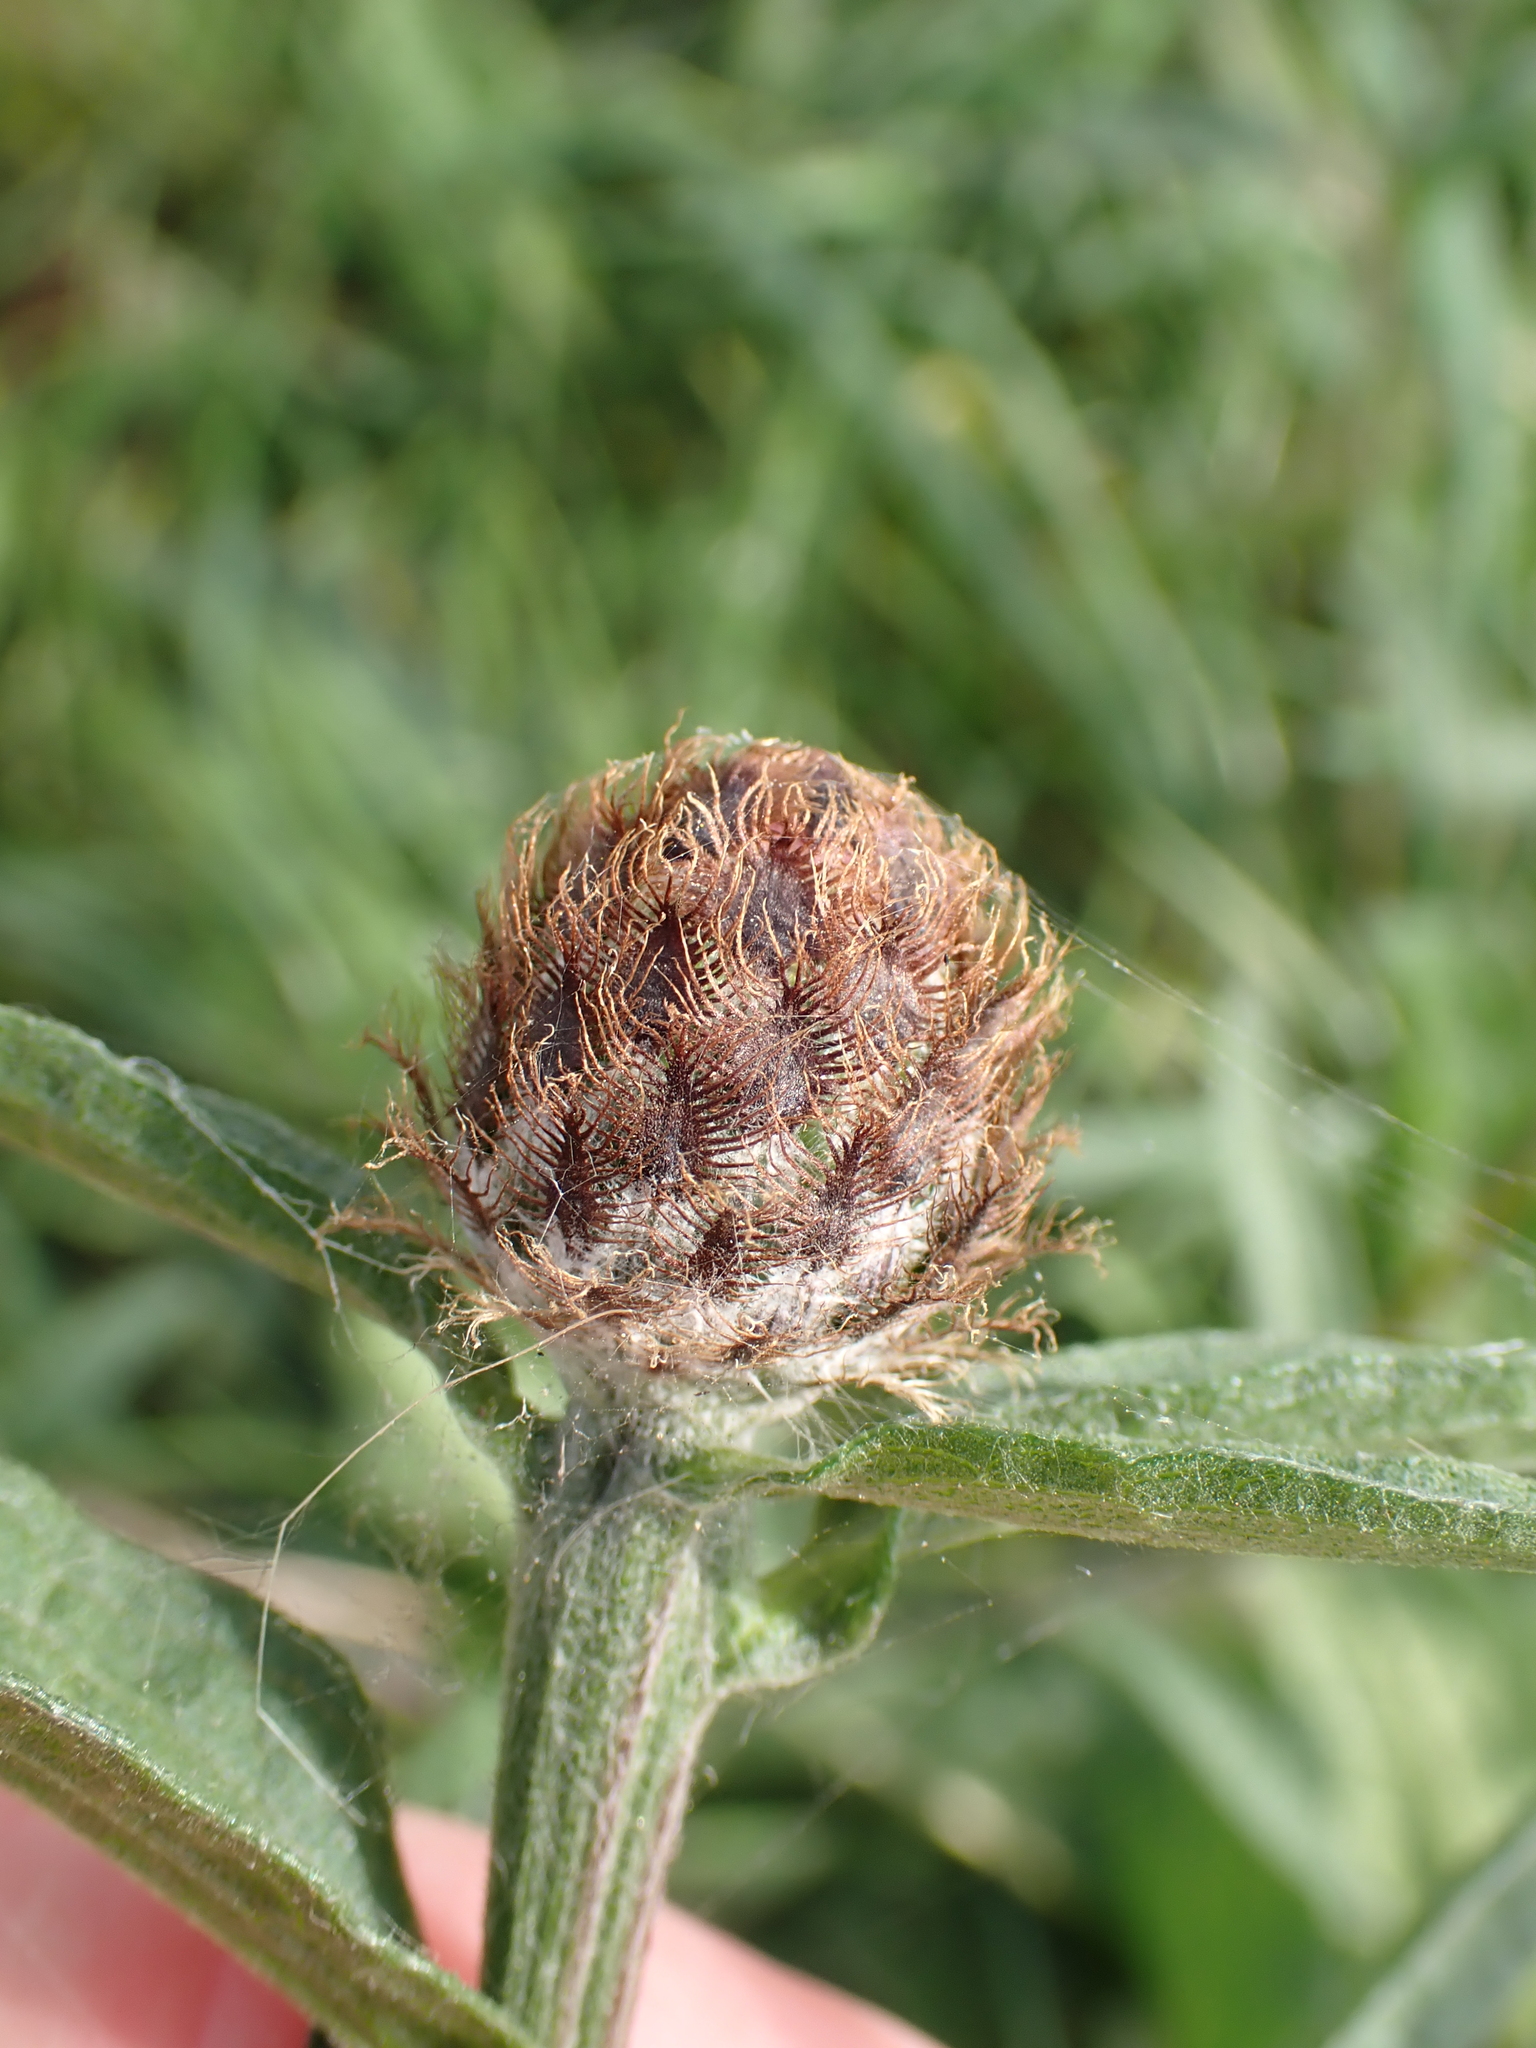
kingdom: Plantae
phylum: Tracheophyta
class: Magnoliopsida
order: Asterales
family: Asteraceae
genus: Centaurea
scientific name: Centaurea nigra
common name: Lesser knapweed
